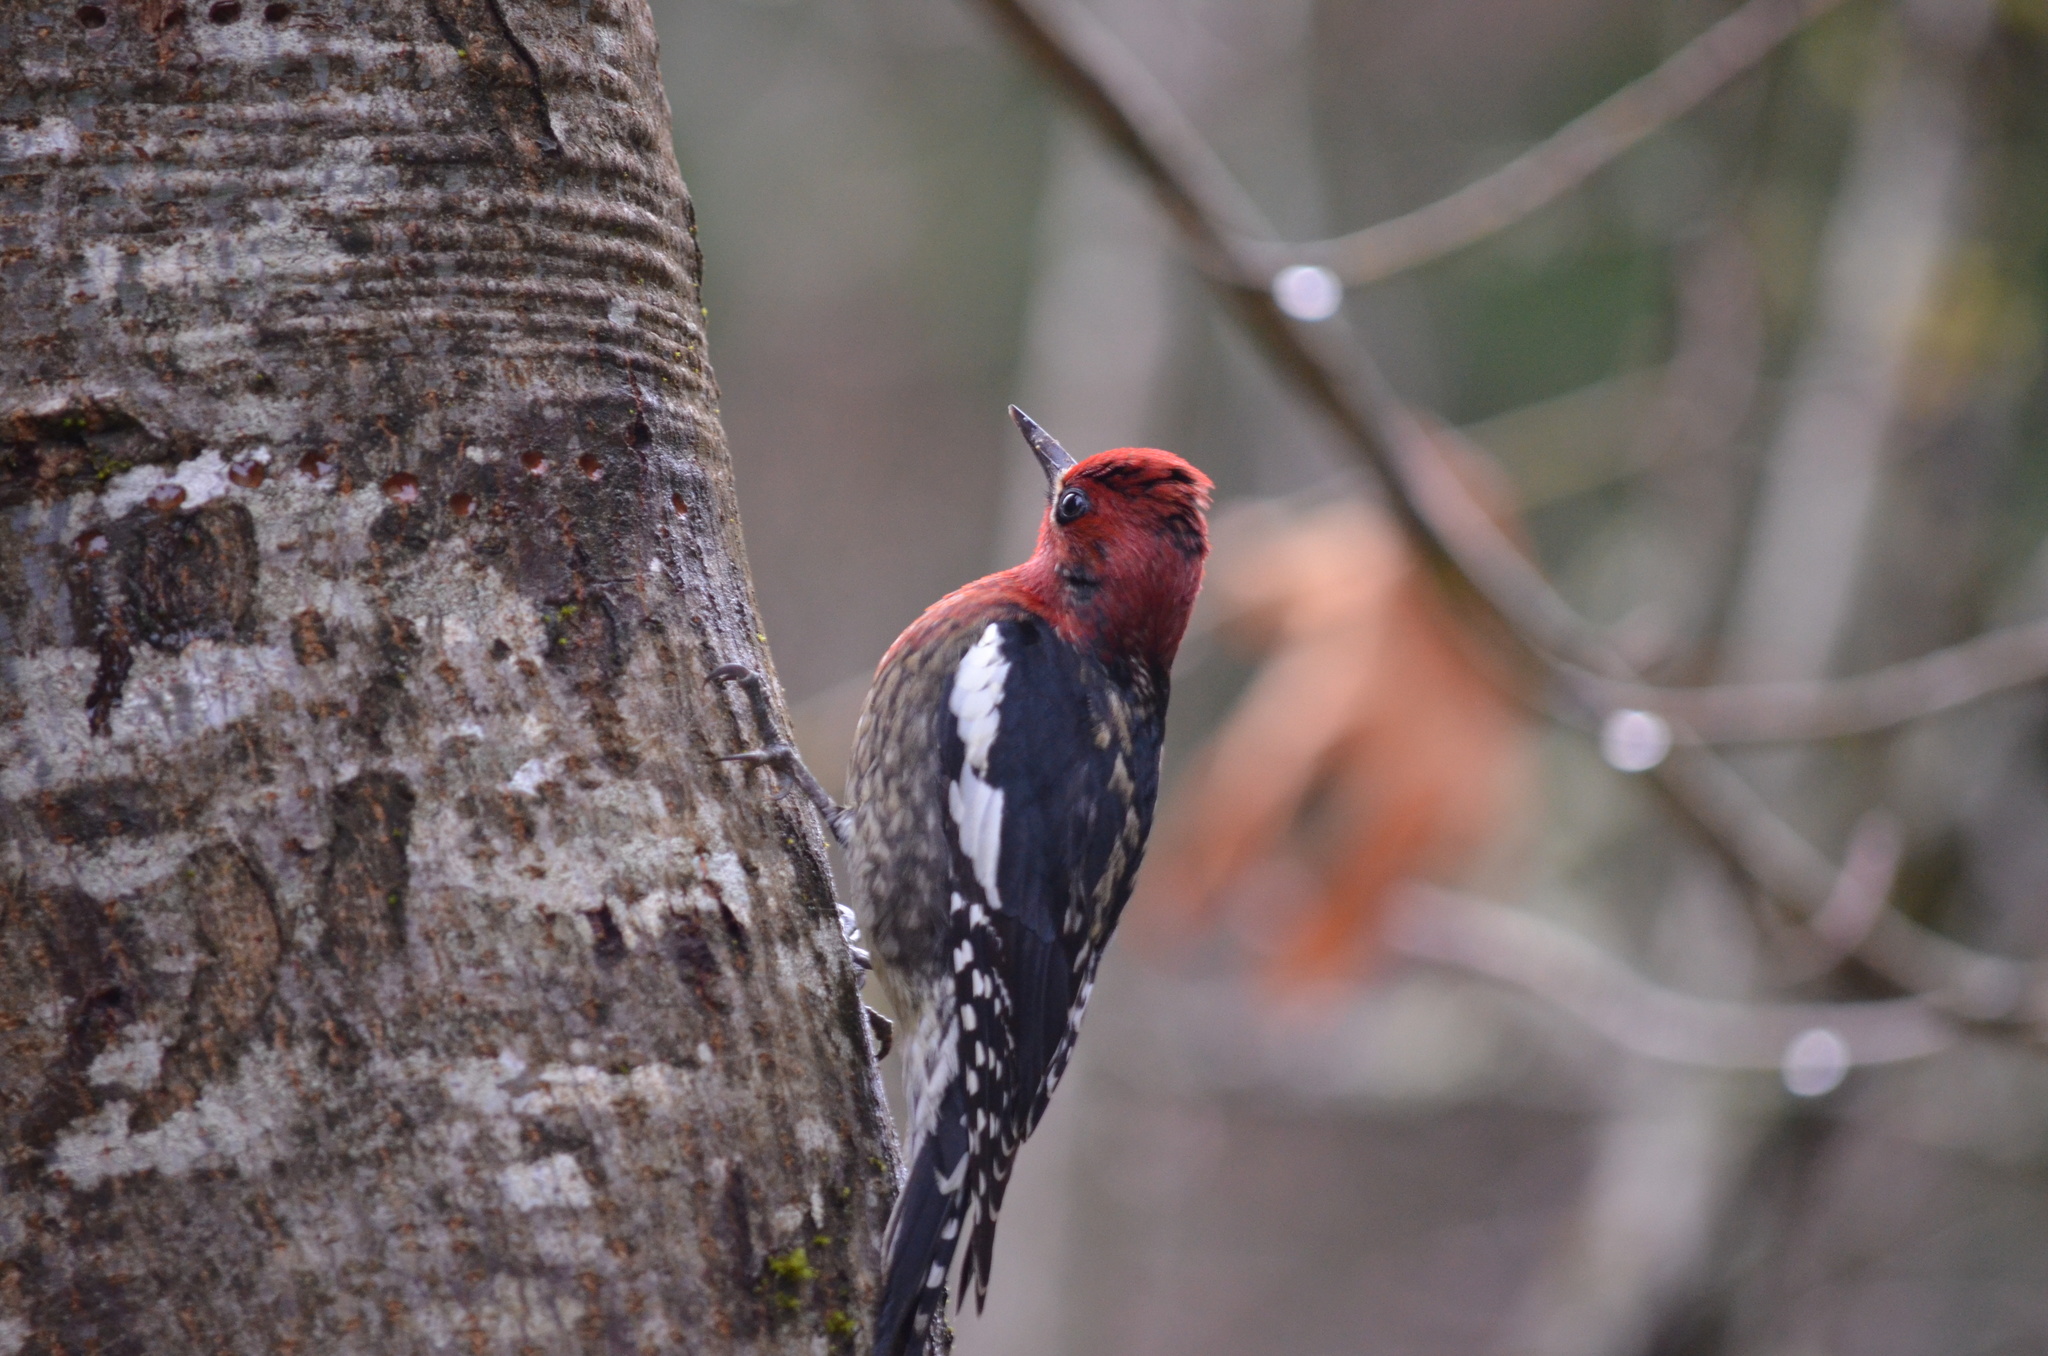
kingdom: Animalia
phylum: Chordata
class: Aves
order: Piciformes
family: Picidae
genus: Sphyrapicus
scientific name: Sphyrapicus ruber
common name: Red-breasted sapsucker
